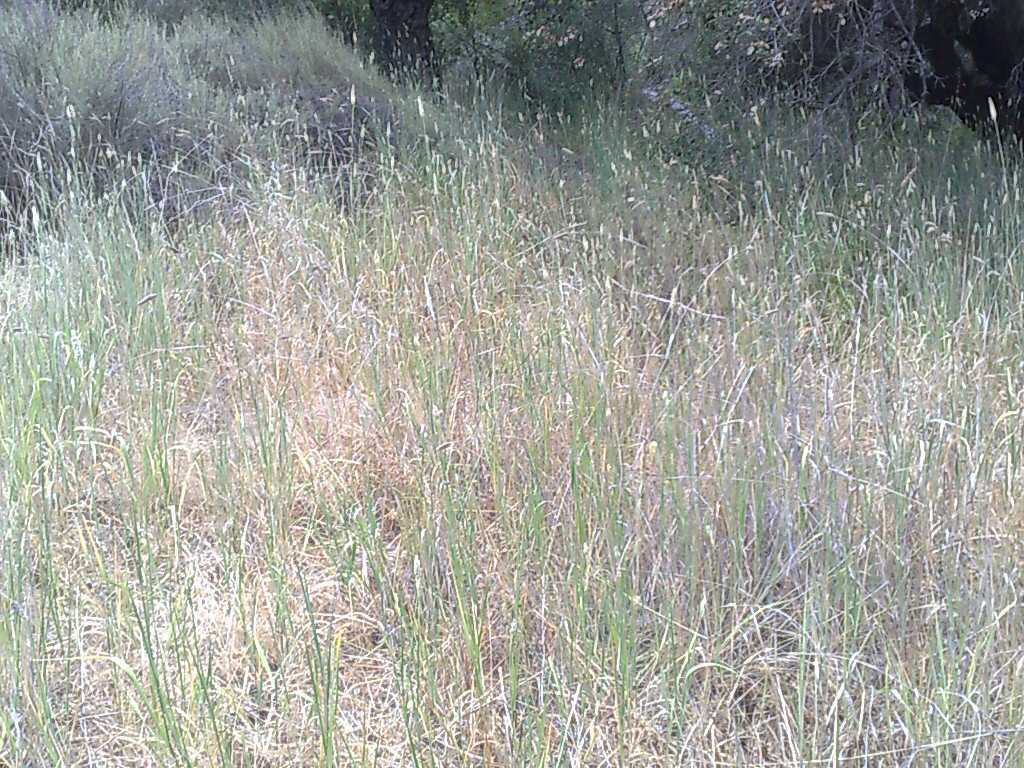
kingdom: Plantae
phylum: Tracheophyta
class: Liliopsida
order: Poales
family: Poaceae
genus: Phalaris
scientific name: Phalaris aquatica
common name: Bulbous canary-grass
